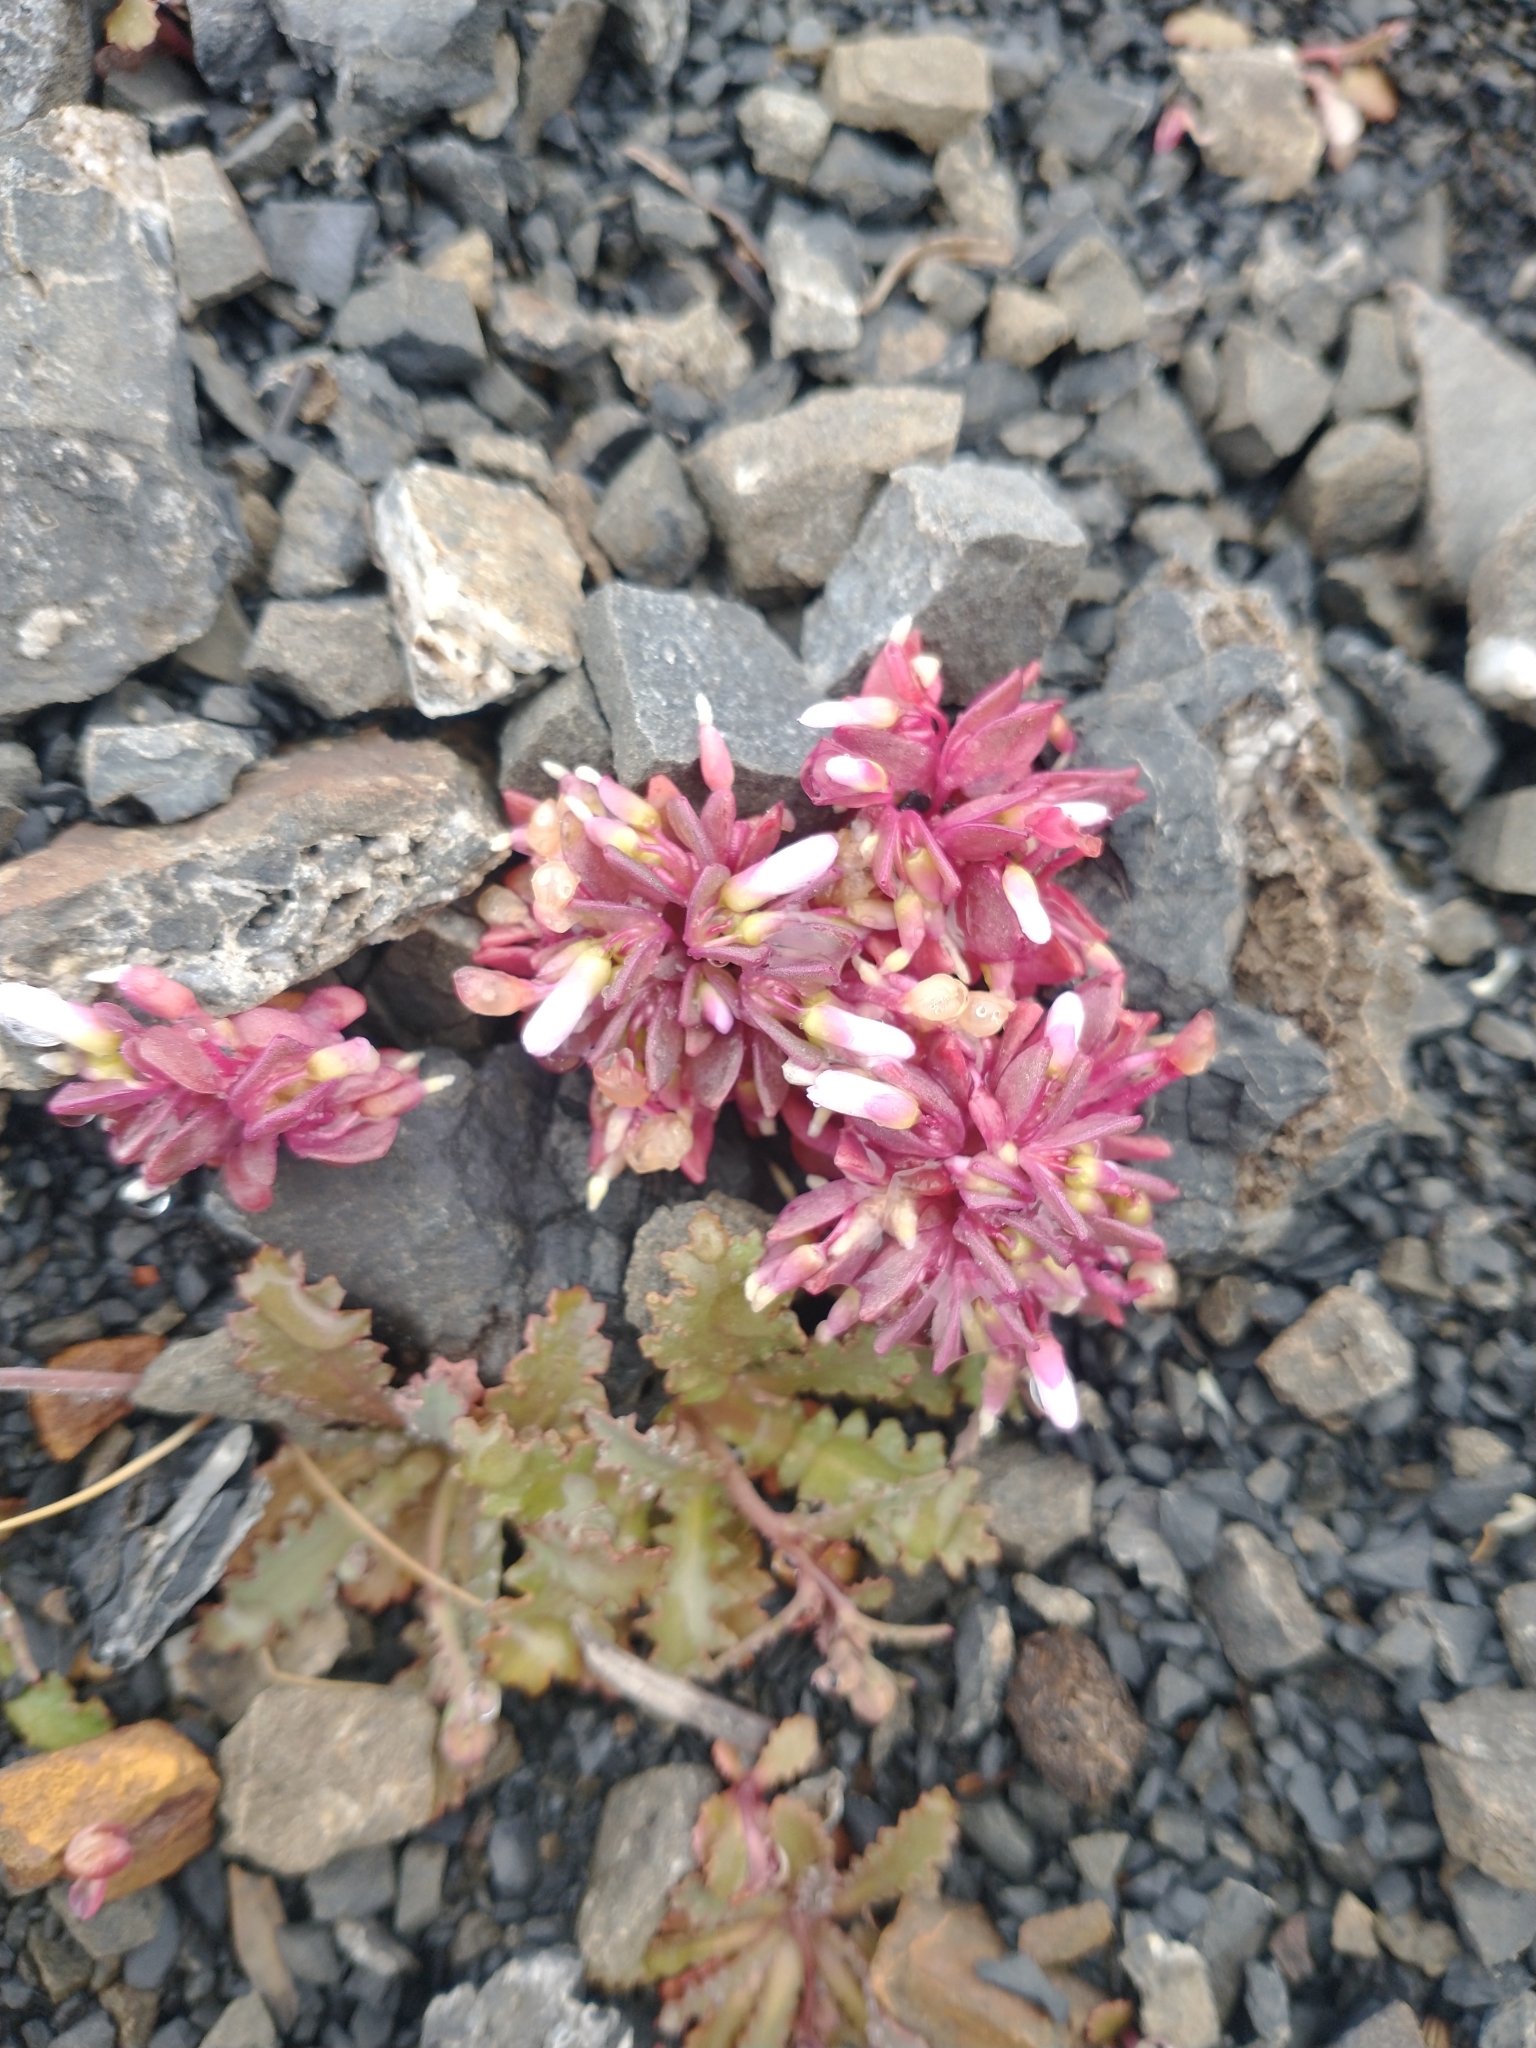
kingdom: Plantae
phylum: Tracheophyta
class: Magnoliopsida
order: Caryophyllales
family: Montiaceae
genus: Claytonia
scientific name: Claytonia saxosa
